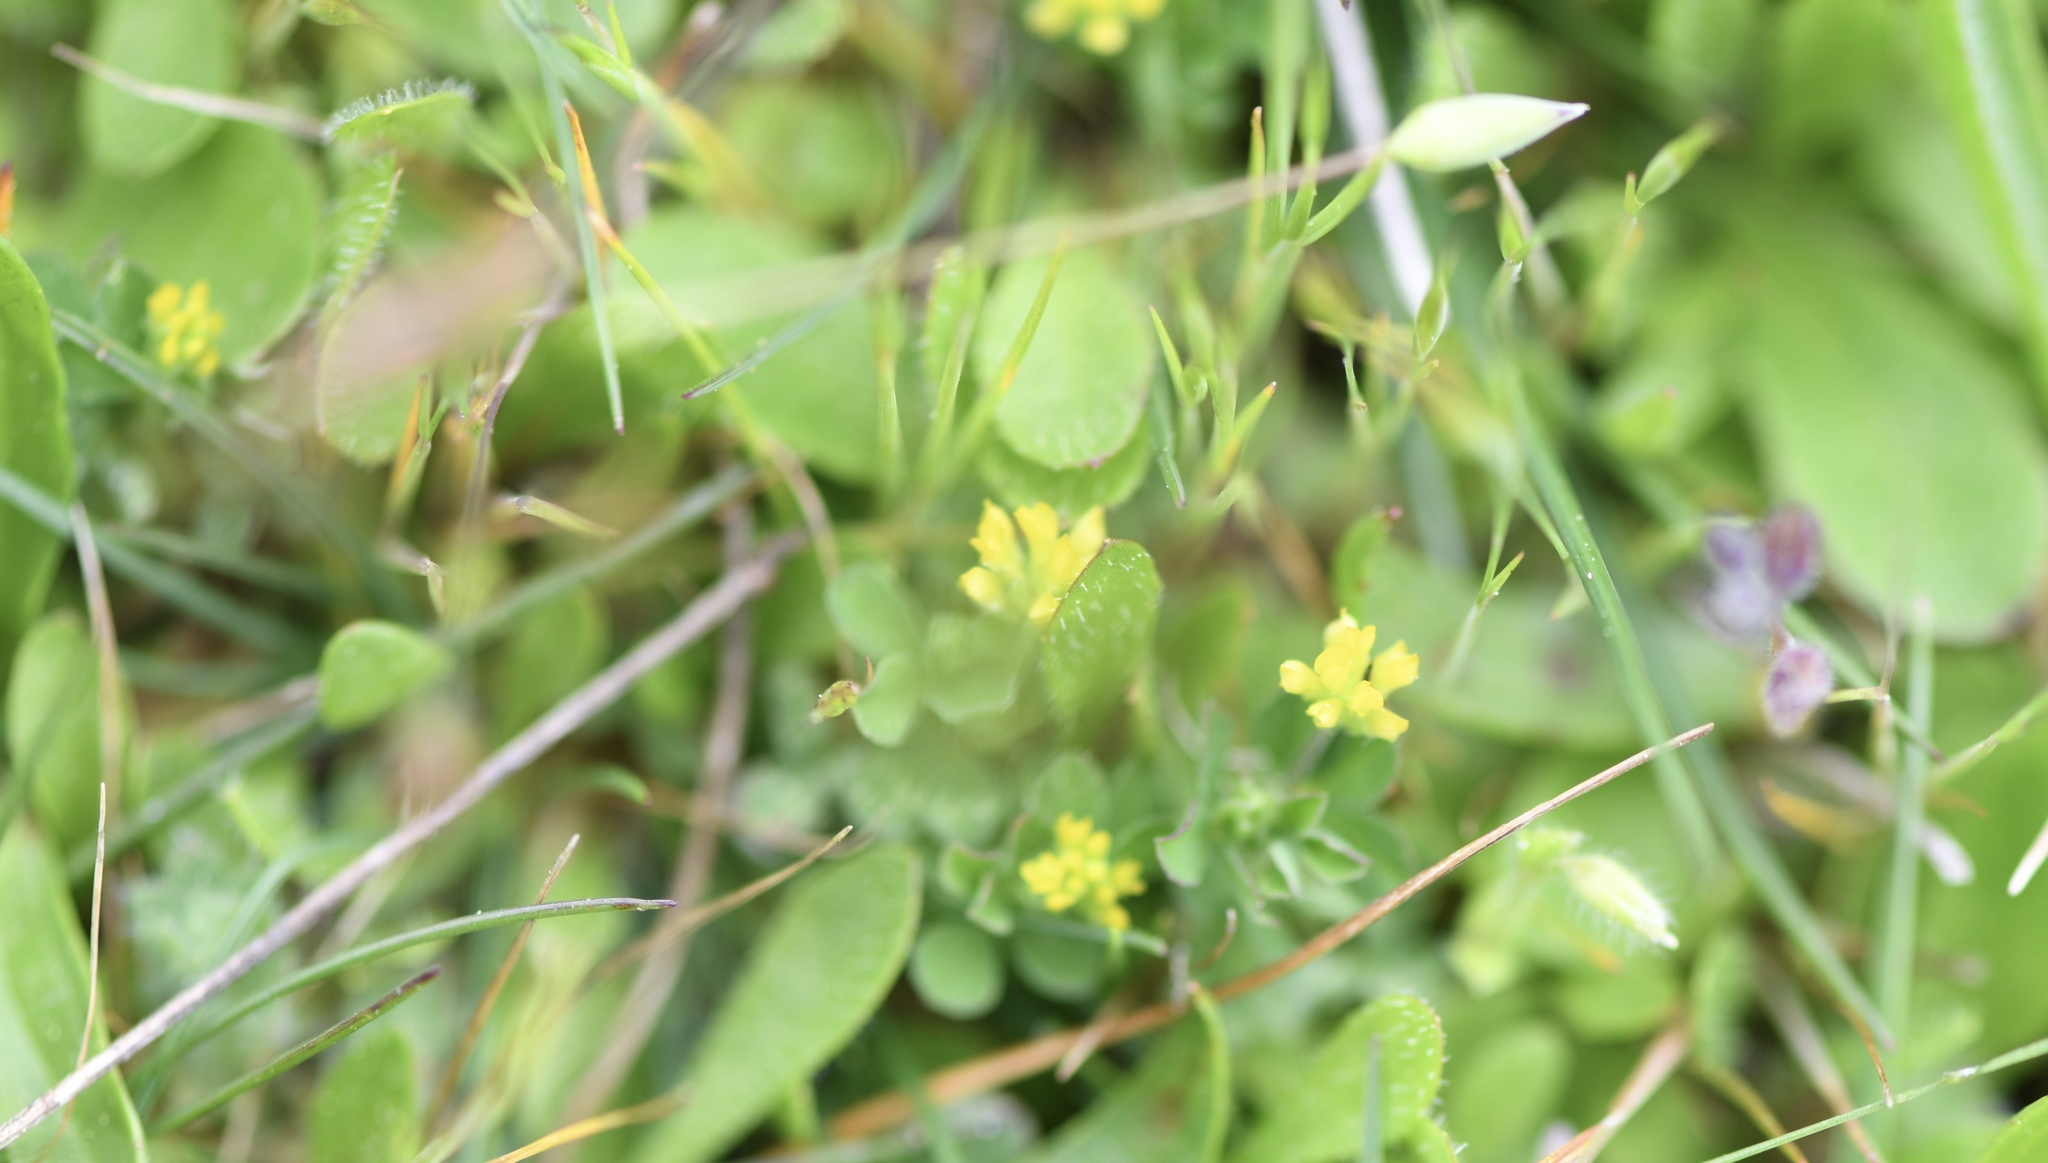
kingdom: Plantae
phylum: Tracheophyta
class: Magnoliopsida
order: Fabales
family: Fabaceae
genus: Trifolium
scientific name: Trifolium dubium
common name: Suckling clover
